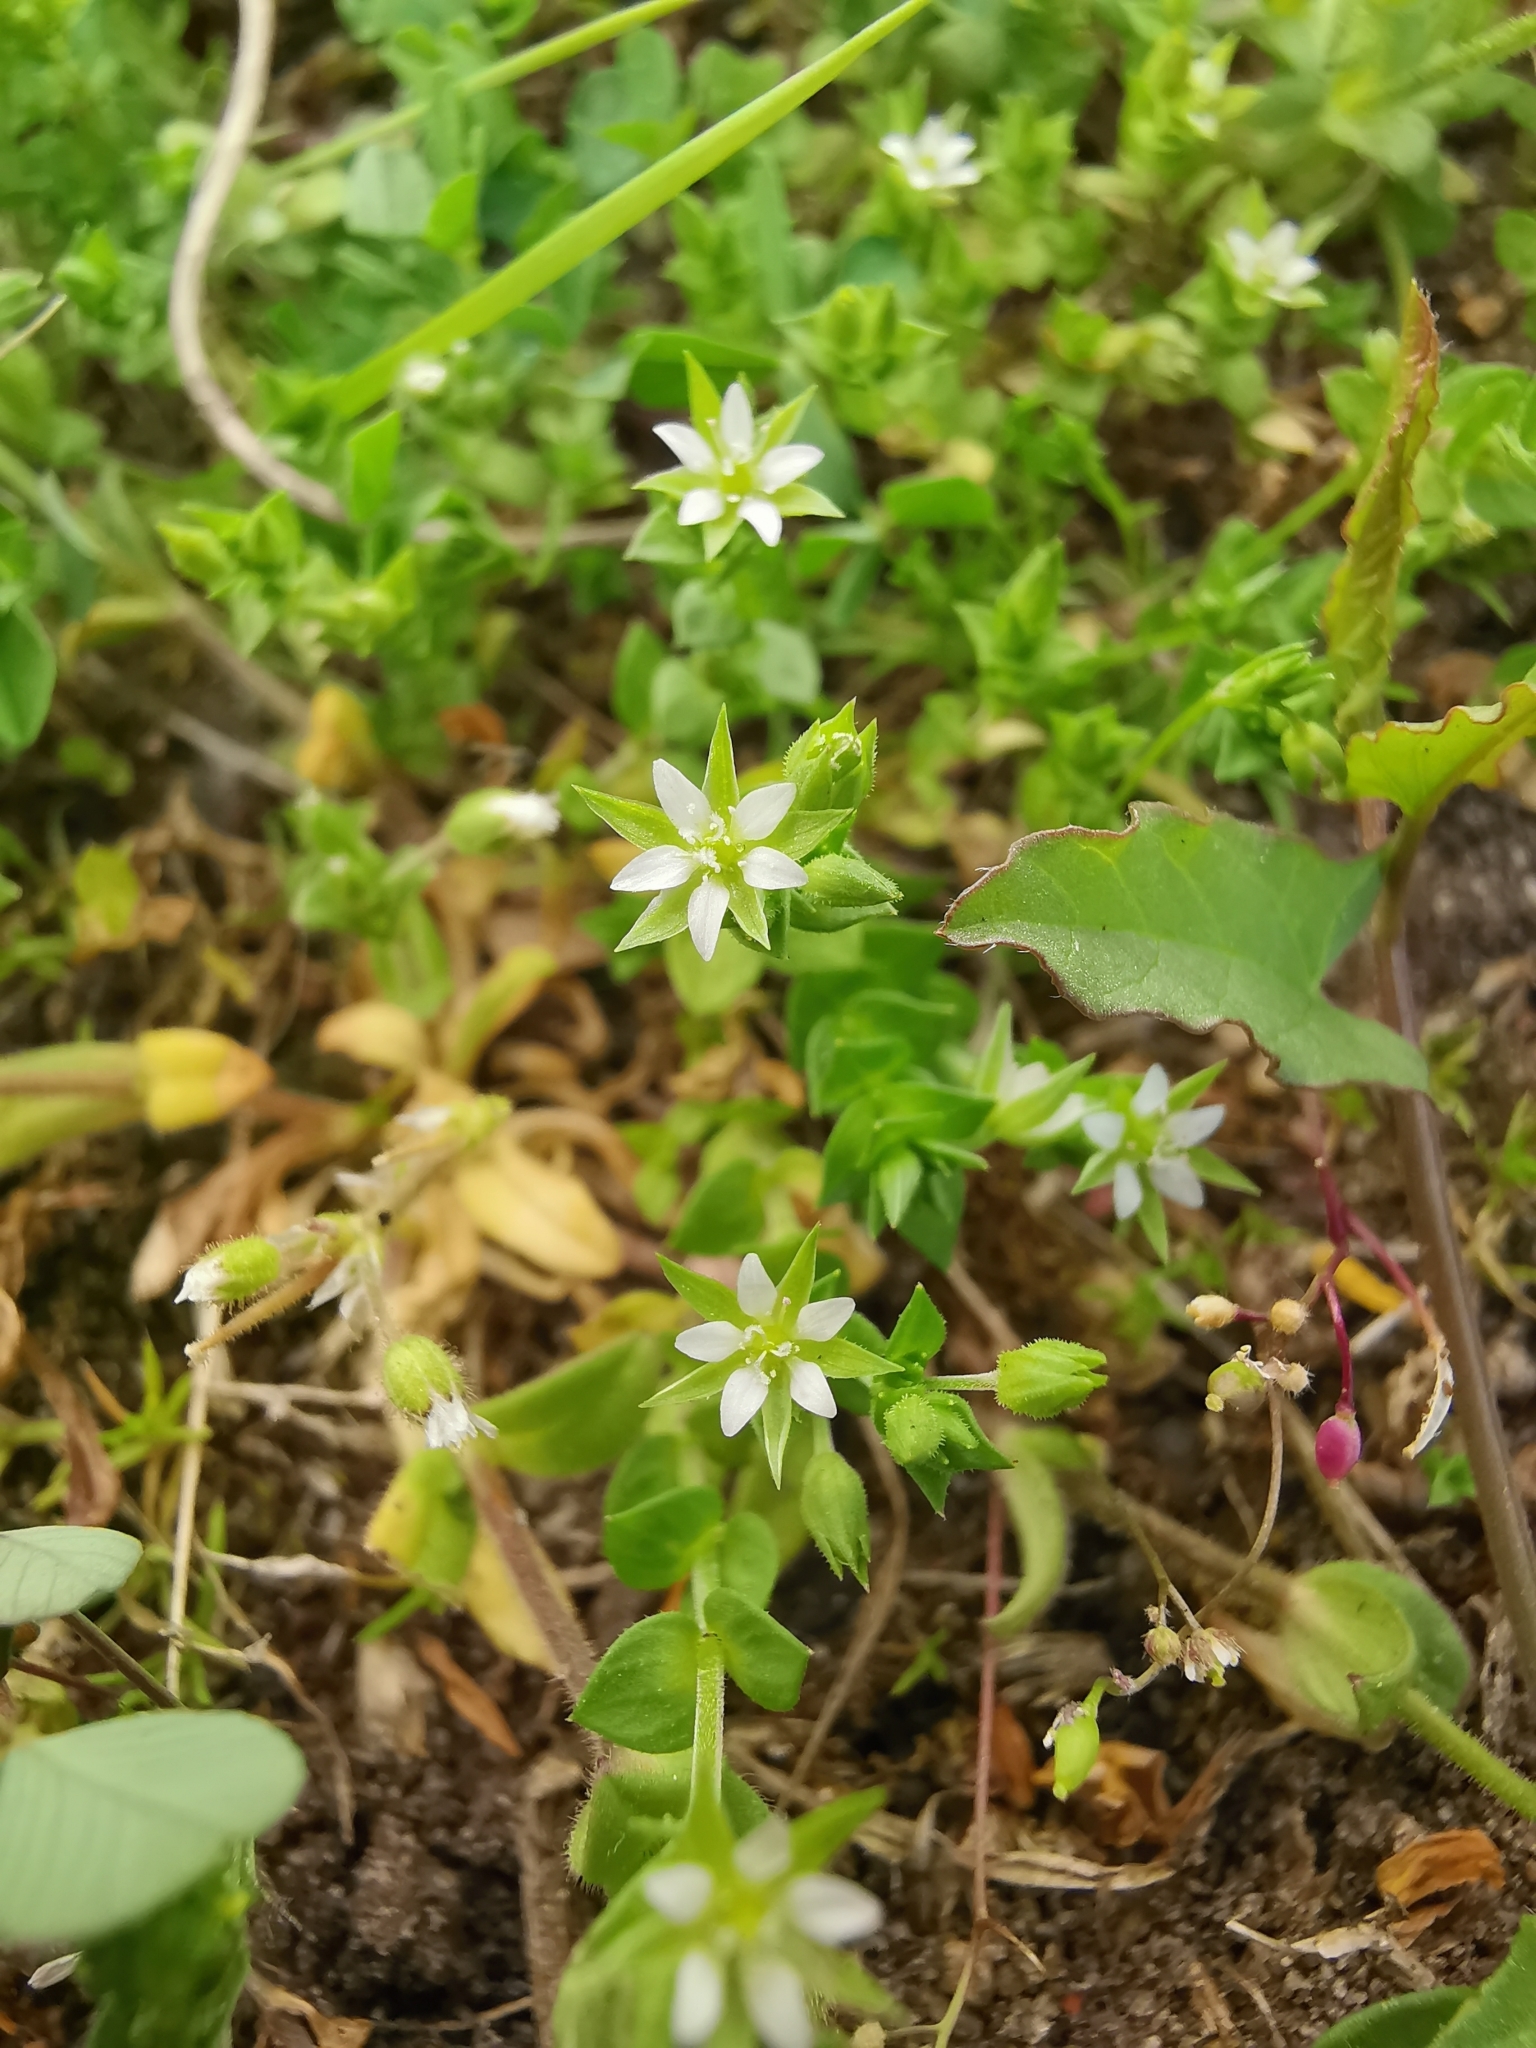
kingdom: Plantae
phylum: Tracheophyta
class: Magnoliopsida
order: Caryophyllales
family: Caryophyllaceae
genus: Arenaria
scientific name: Arenaria serpyllifolia
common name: Thyme-leaved sandwort
